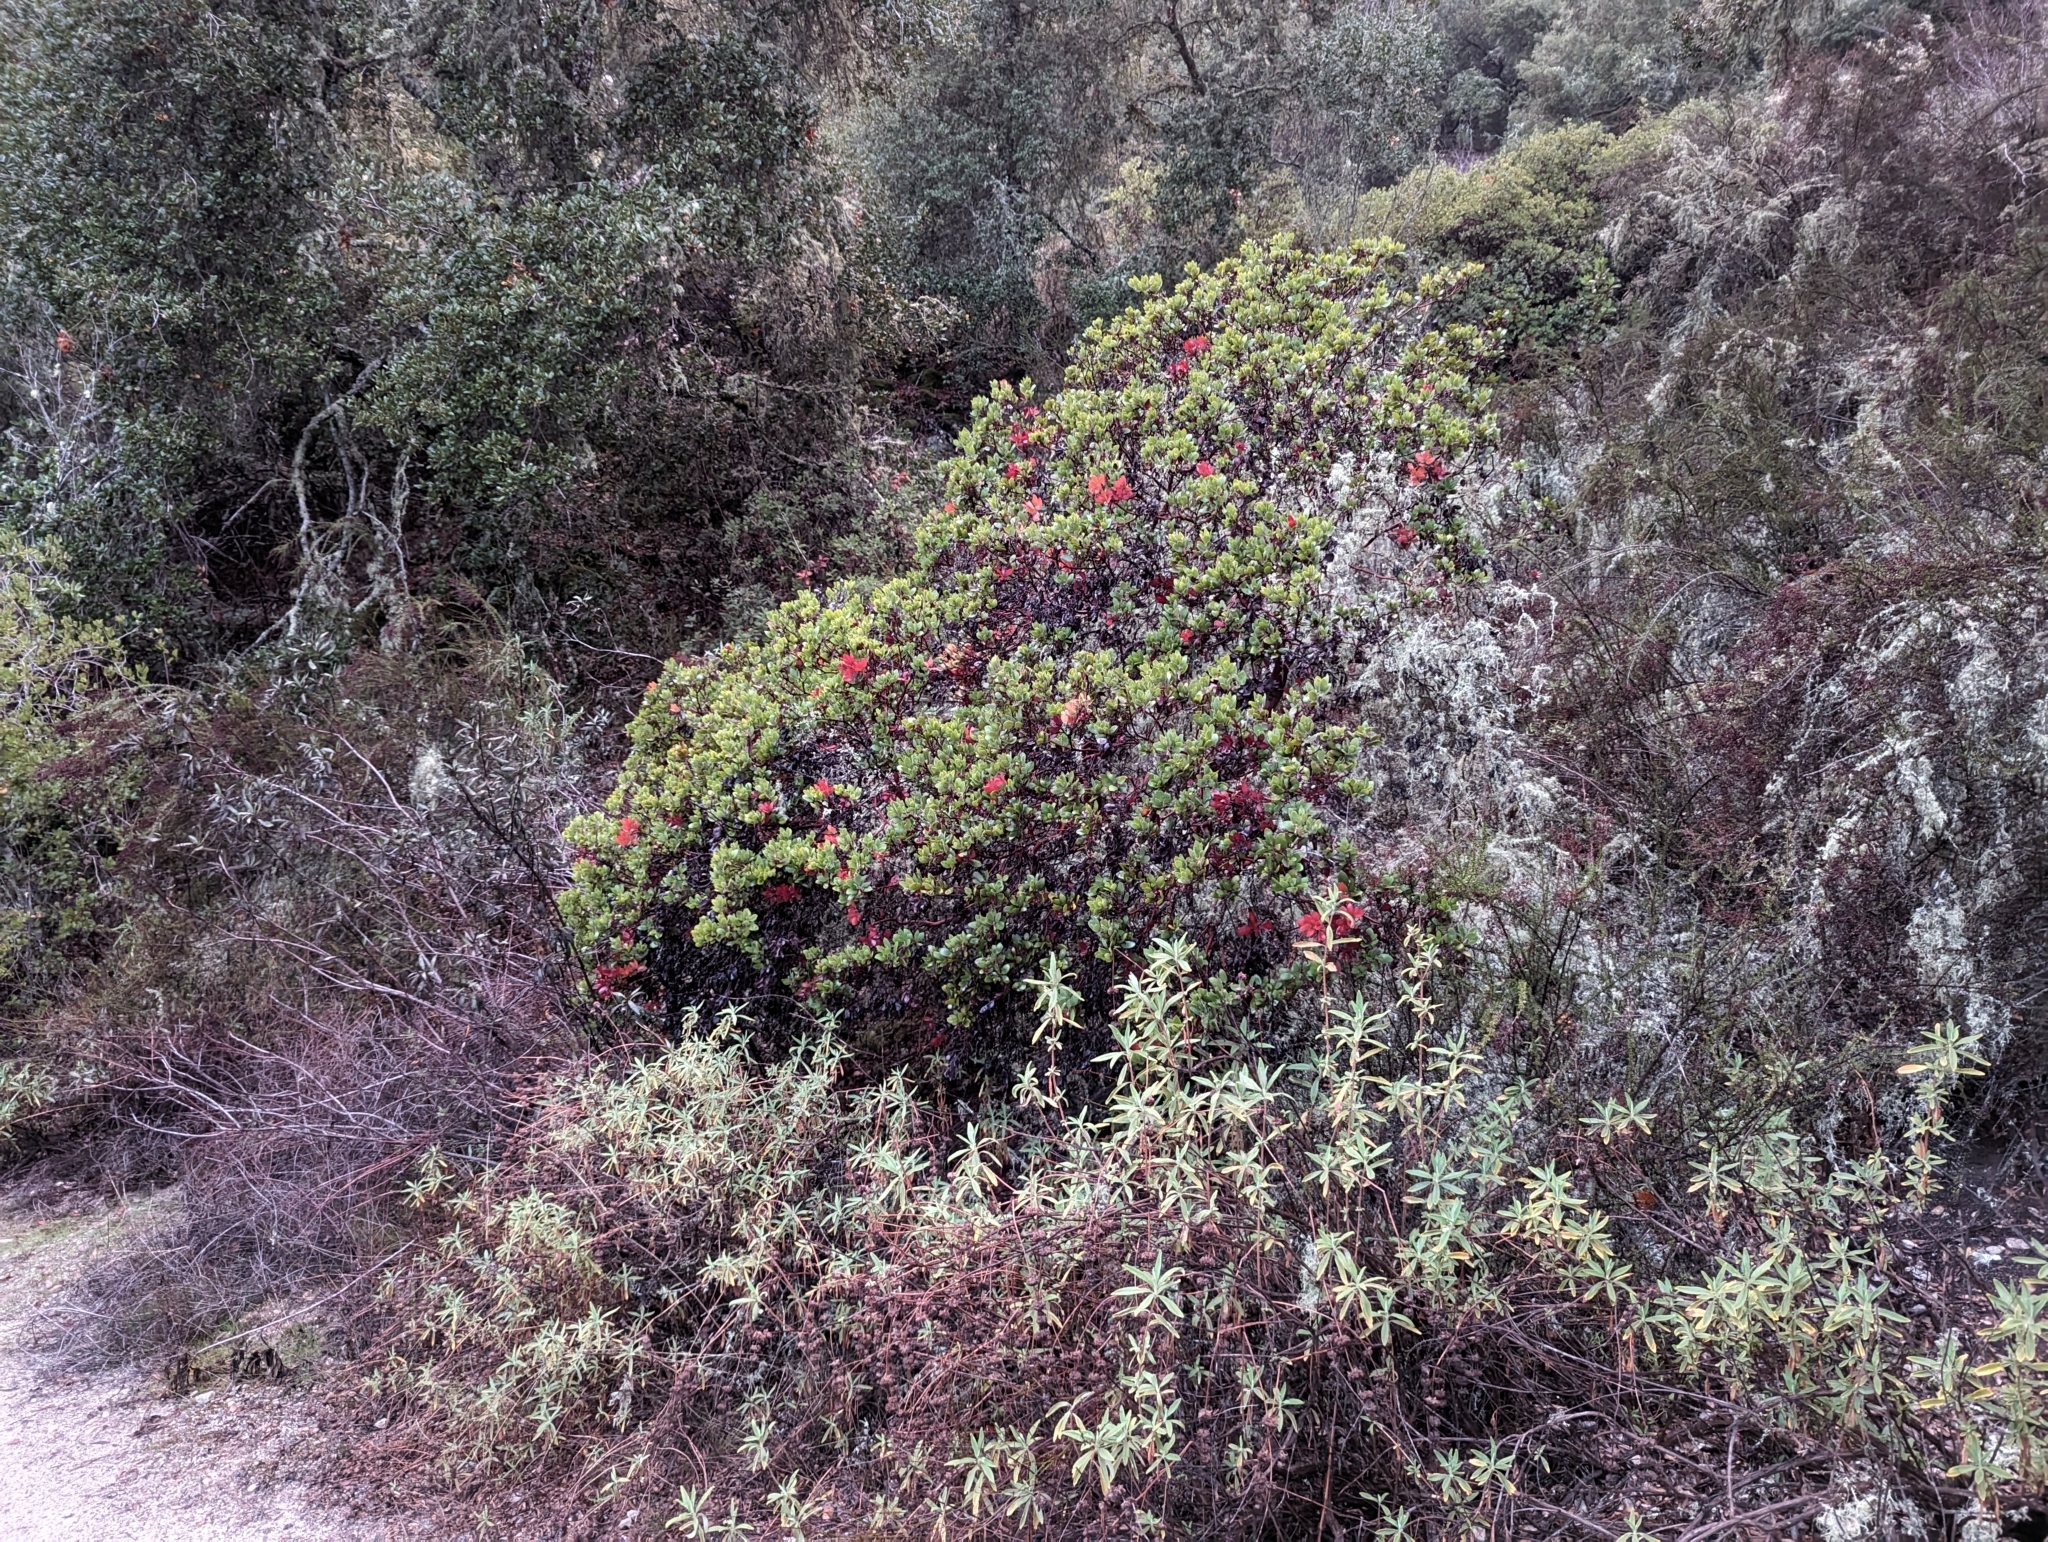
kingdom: Plantae
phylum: Tracheophyta
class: Magnoliopsida
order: Ericales
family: Ericaceae
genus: Arctostaphylos
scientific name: Arctostaphylos crustacea
